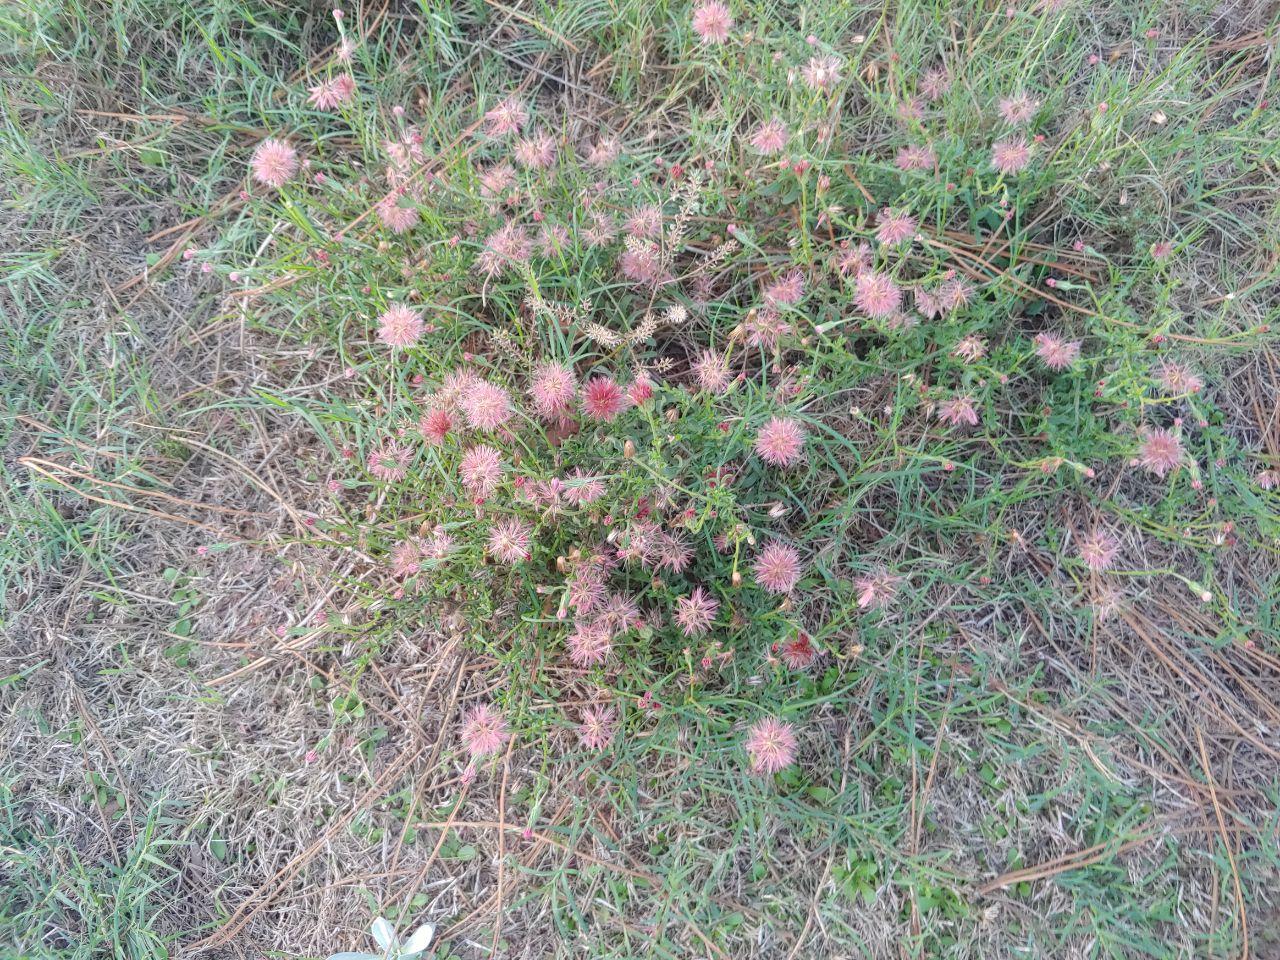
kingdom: Plantae
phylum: Tracheophyta
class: Magnoliopsida
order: Asterales
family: Asteraceae
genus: Noticastrum
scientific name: Noticastrum diffusum
